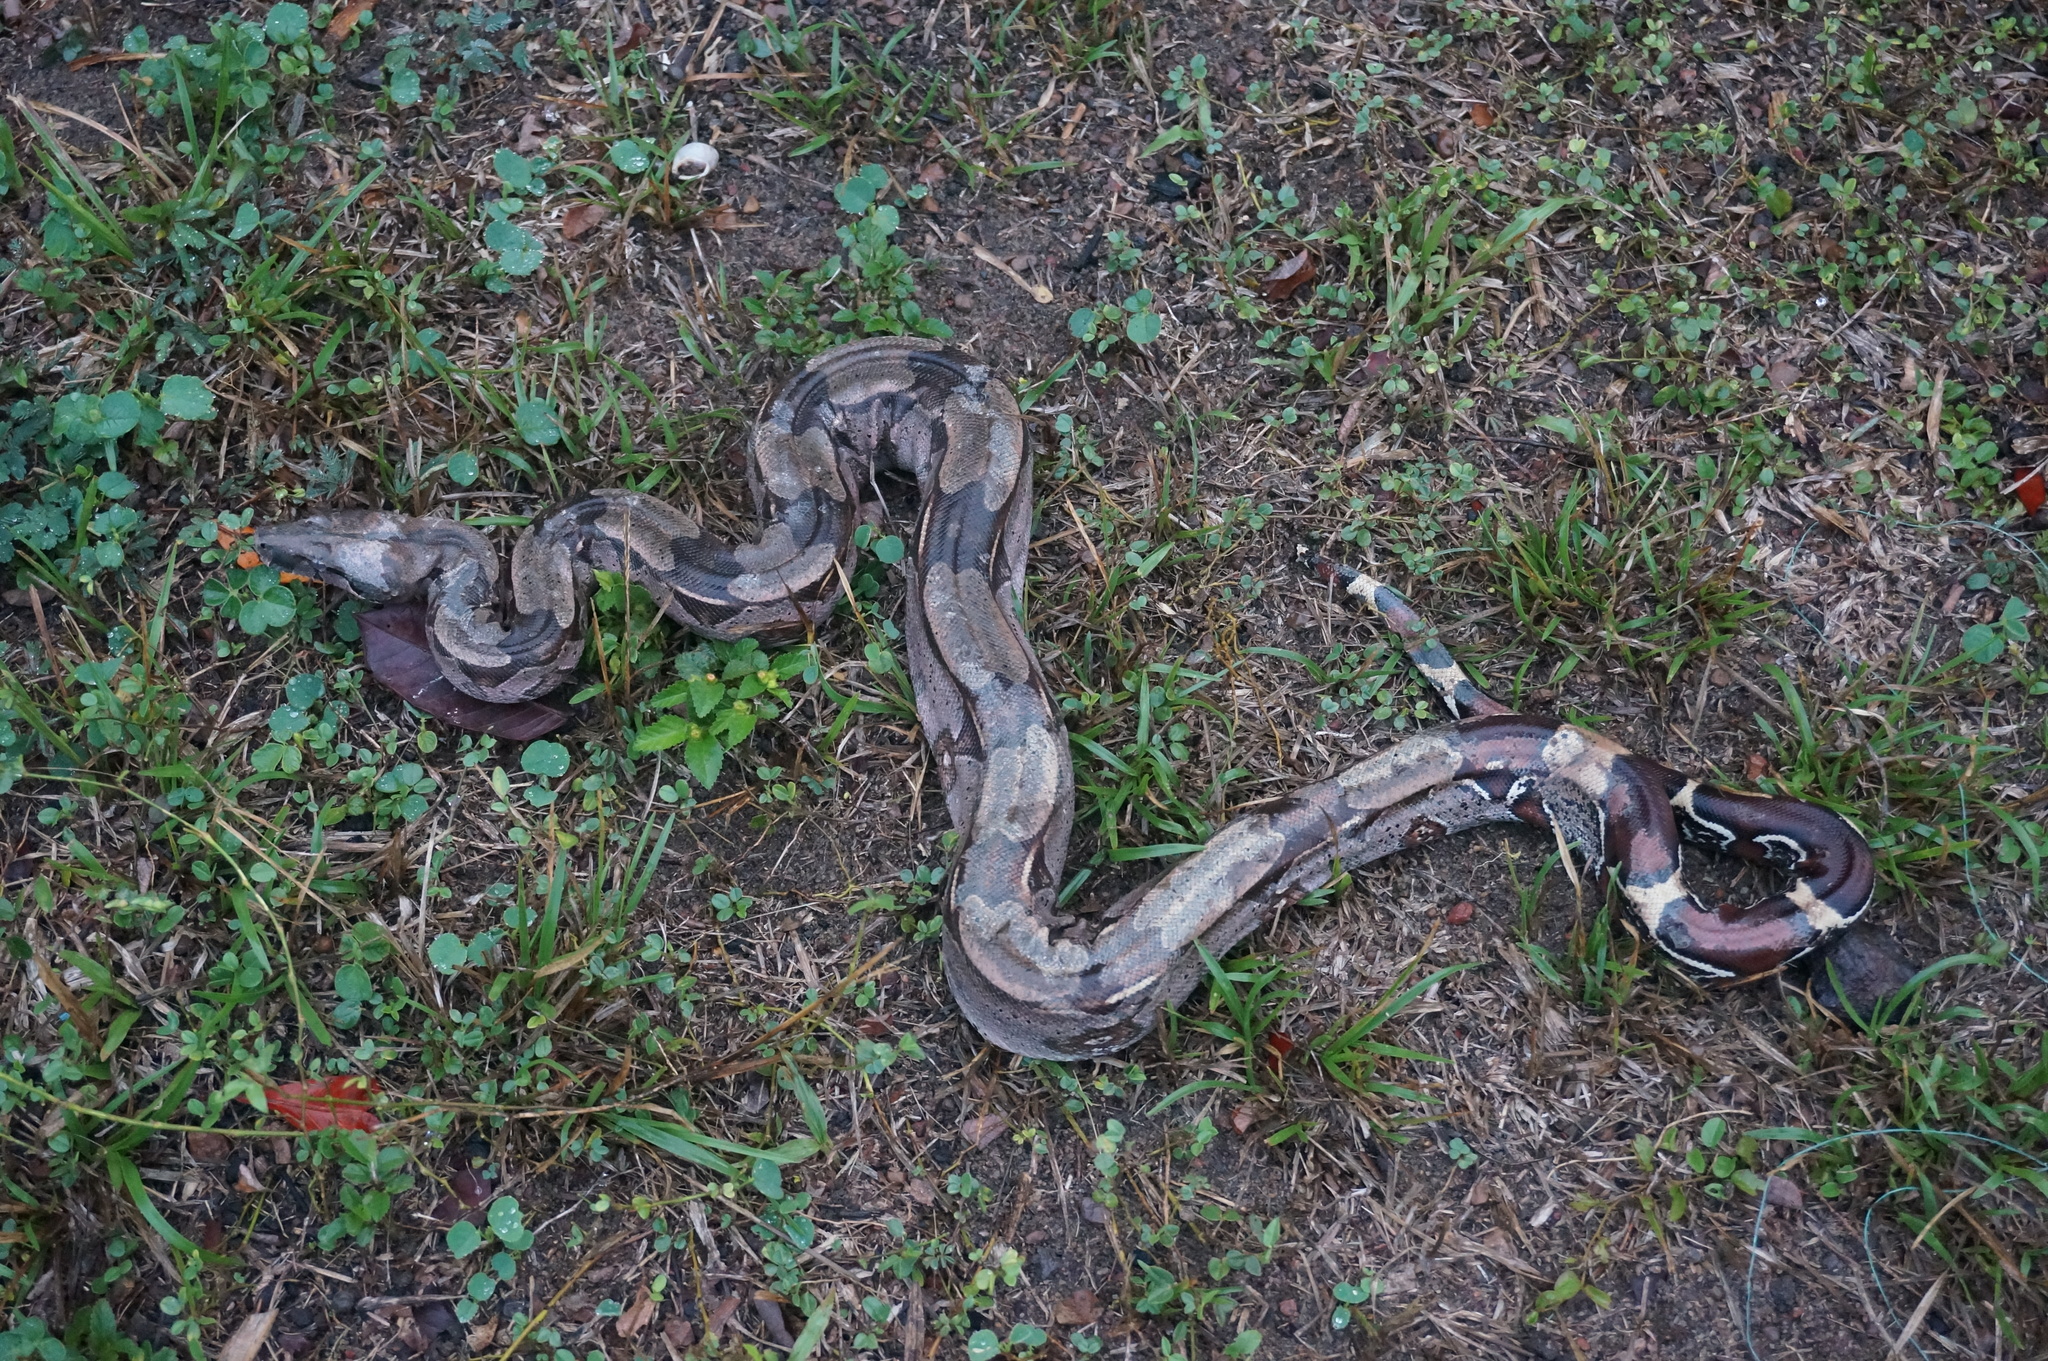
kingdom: Animalia
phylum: Chordata
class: Squamata
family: Boidae
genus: Boa
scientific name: Boa constrictor
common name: Boa constrictor
